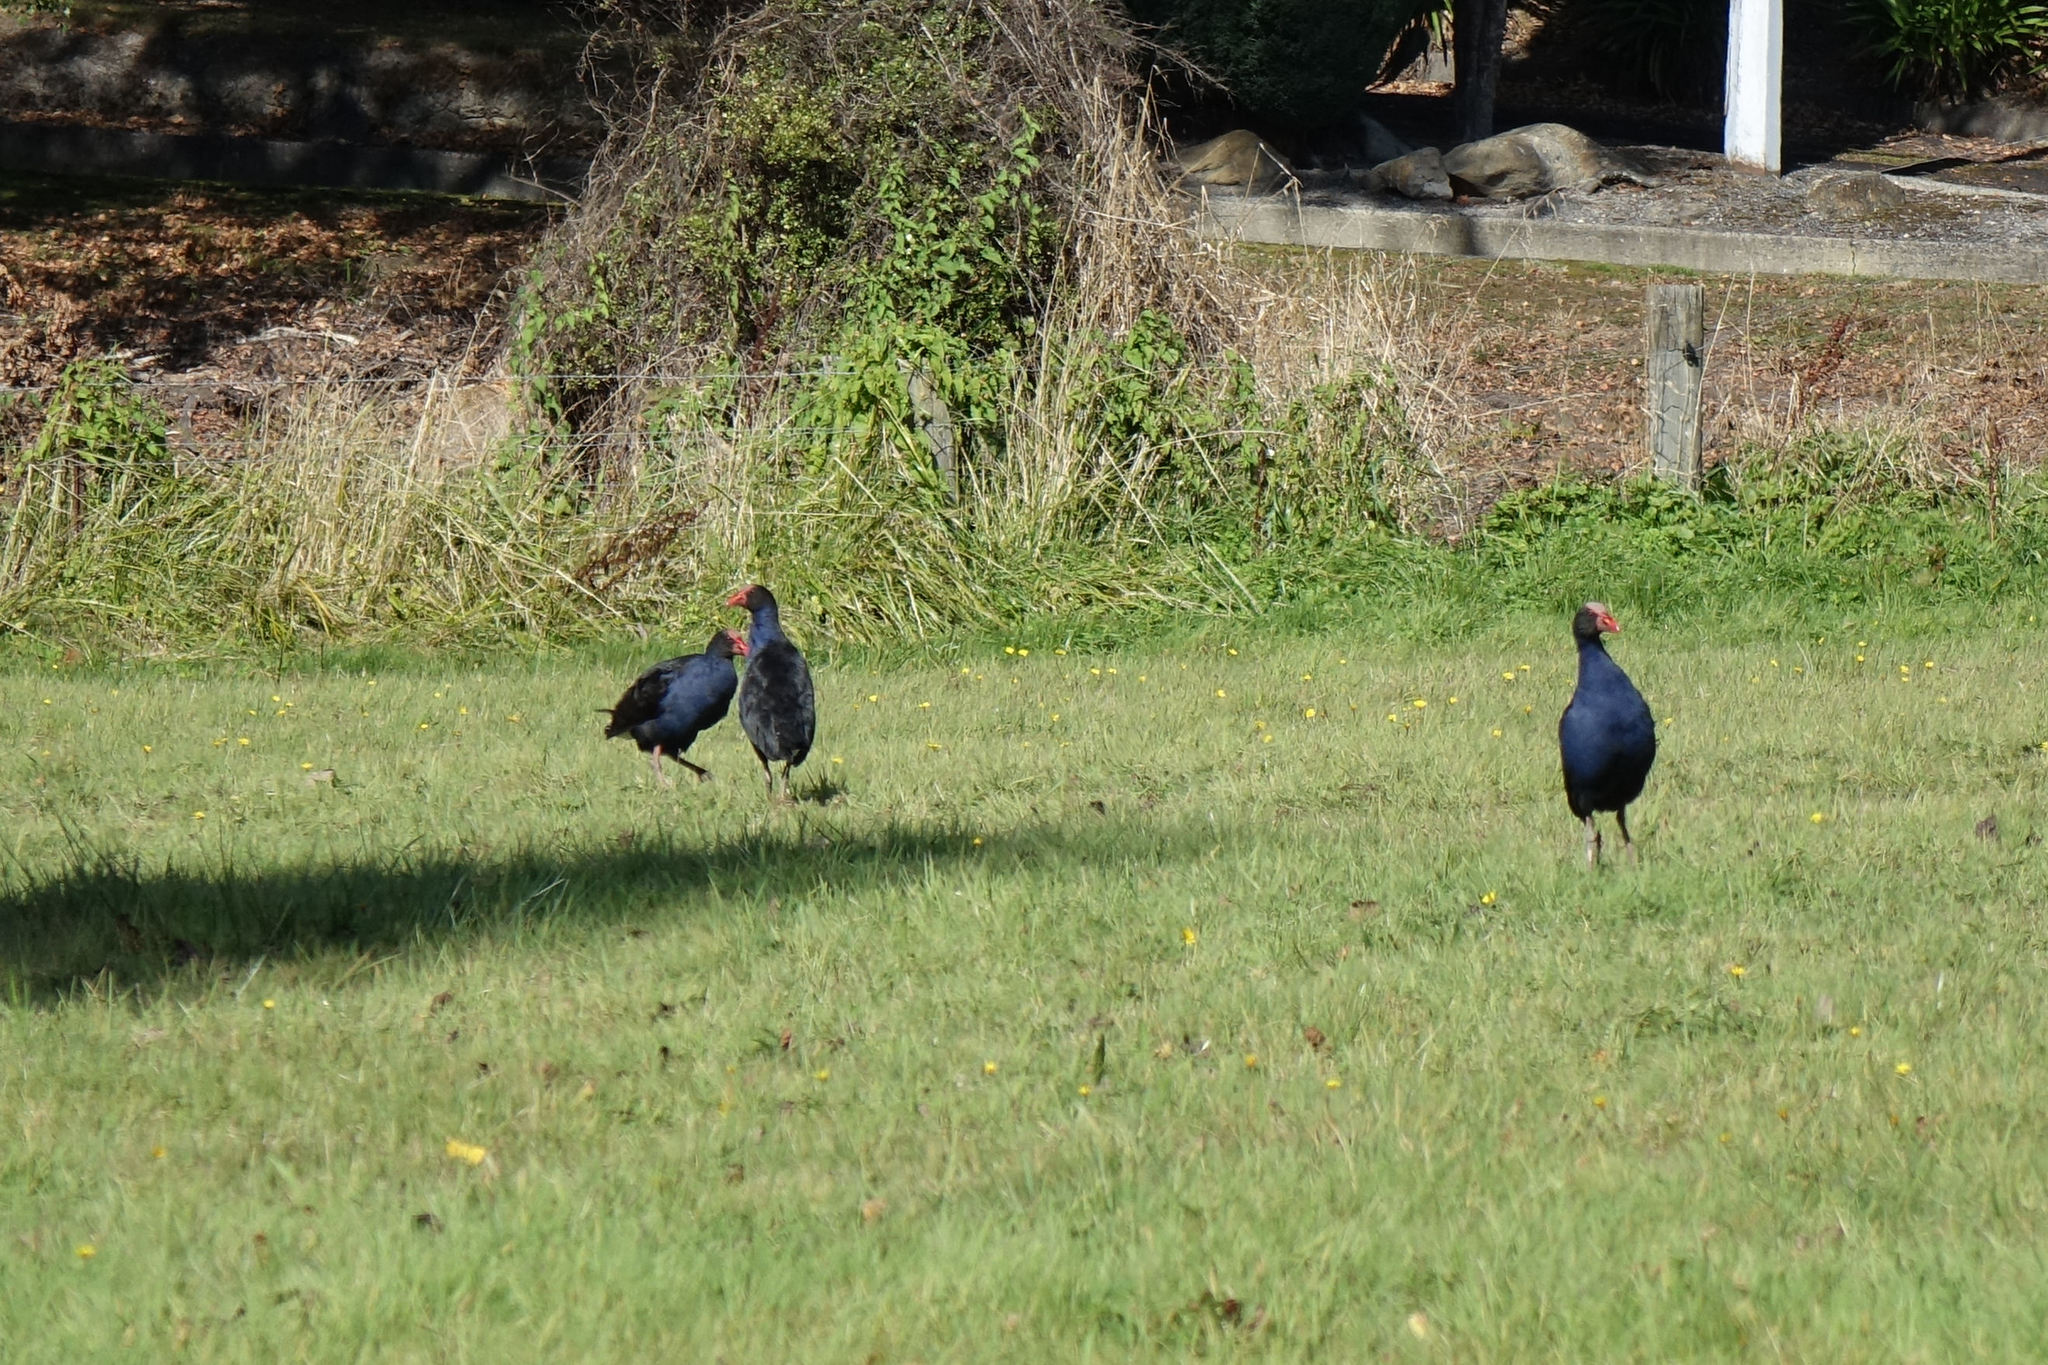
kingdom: Animalia
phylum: Chordata
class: Aves
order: Gruiformes
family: Rallidae
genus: Porphyrio
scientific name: Porphyrio melanotus
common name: Australasian swamphen
